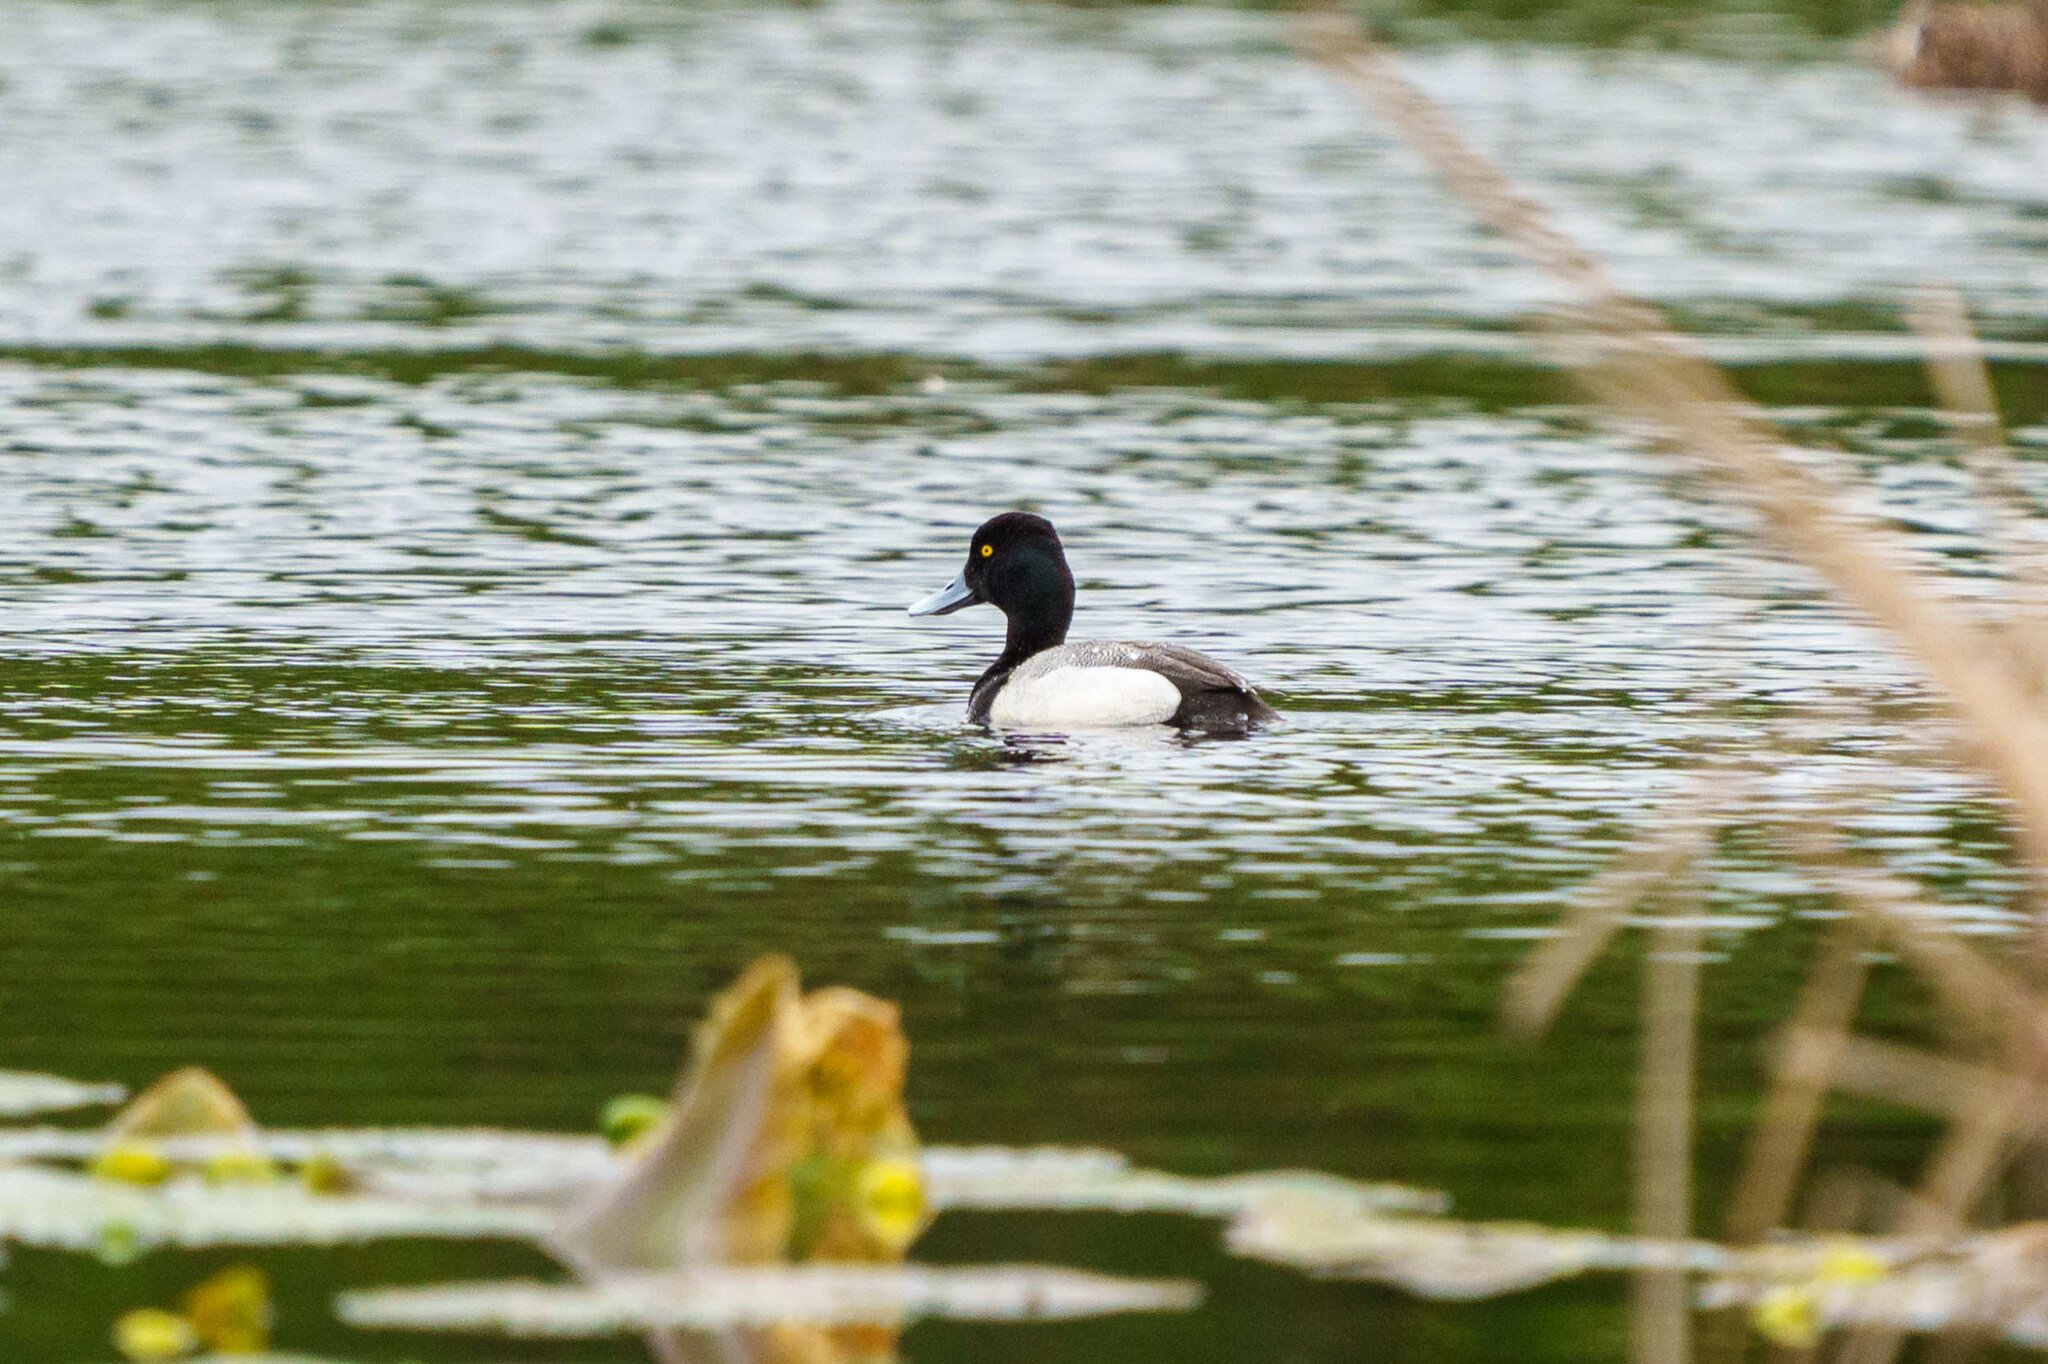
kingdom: Animalia
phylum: Chordata
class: Aves
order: Anseriformes
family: Anatidae
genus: Aythya
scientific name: Aythya affinis
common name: Lesser scaup
